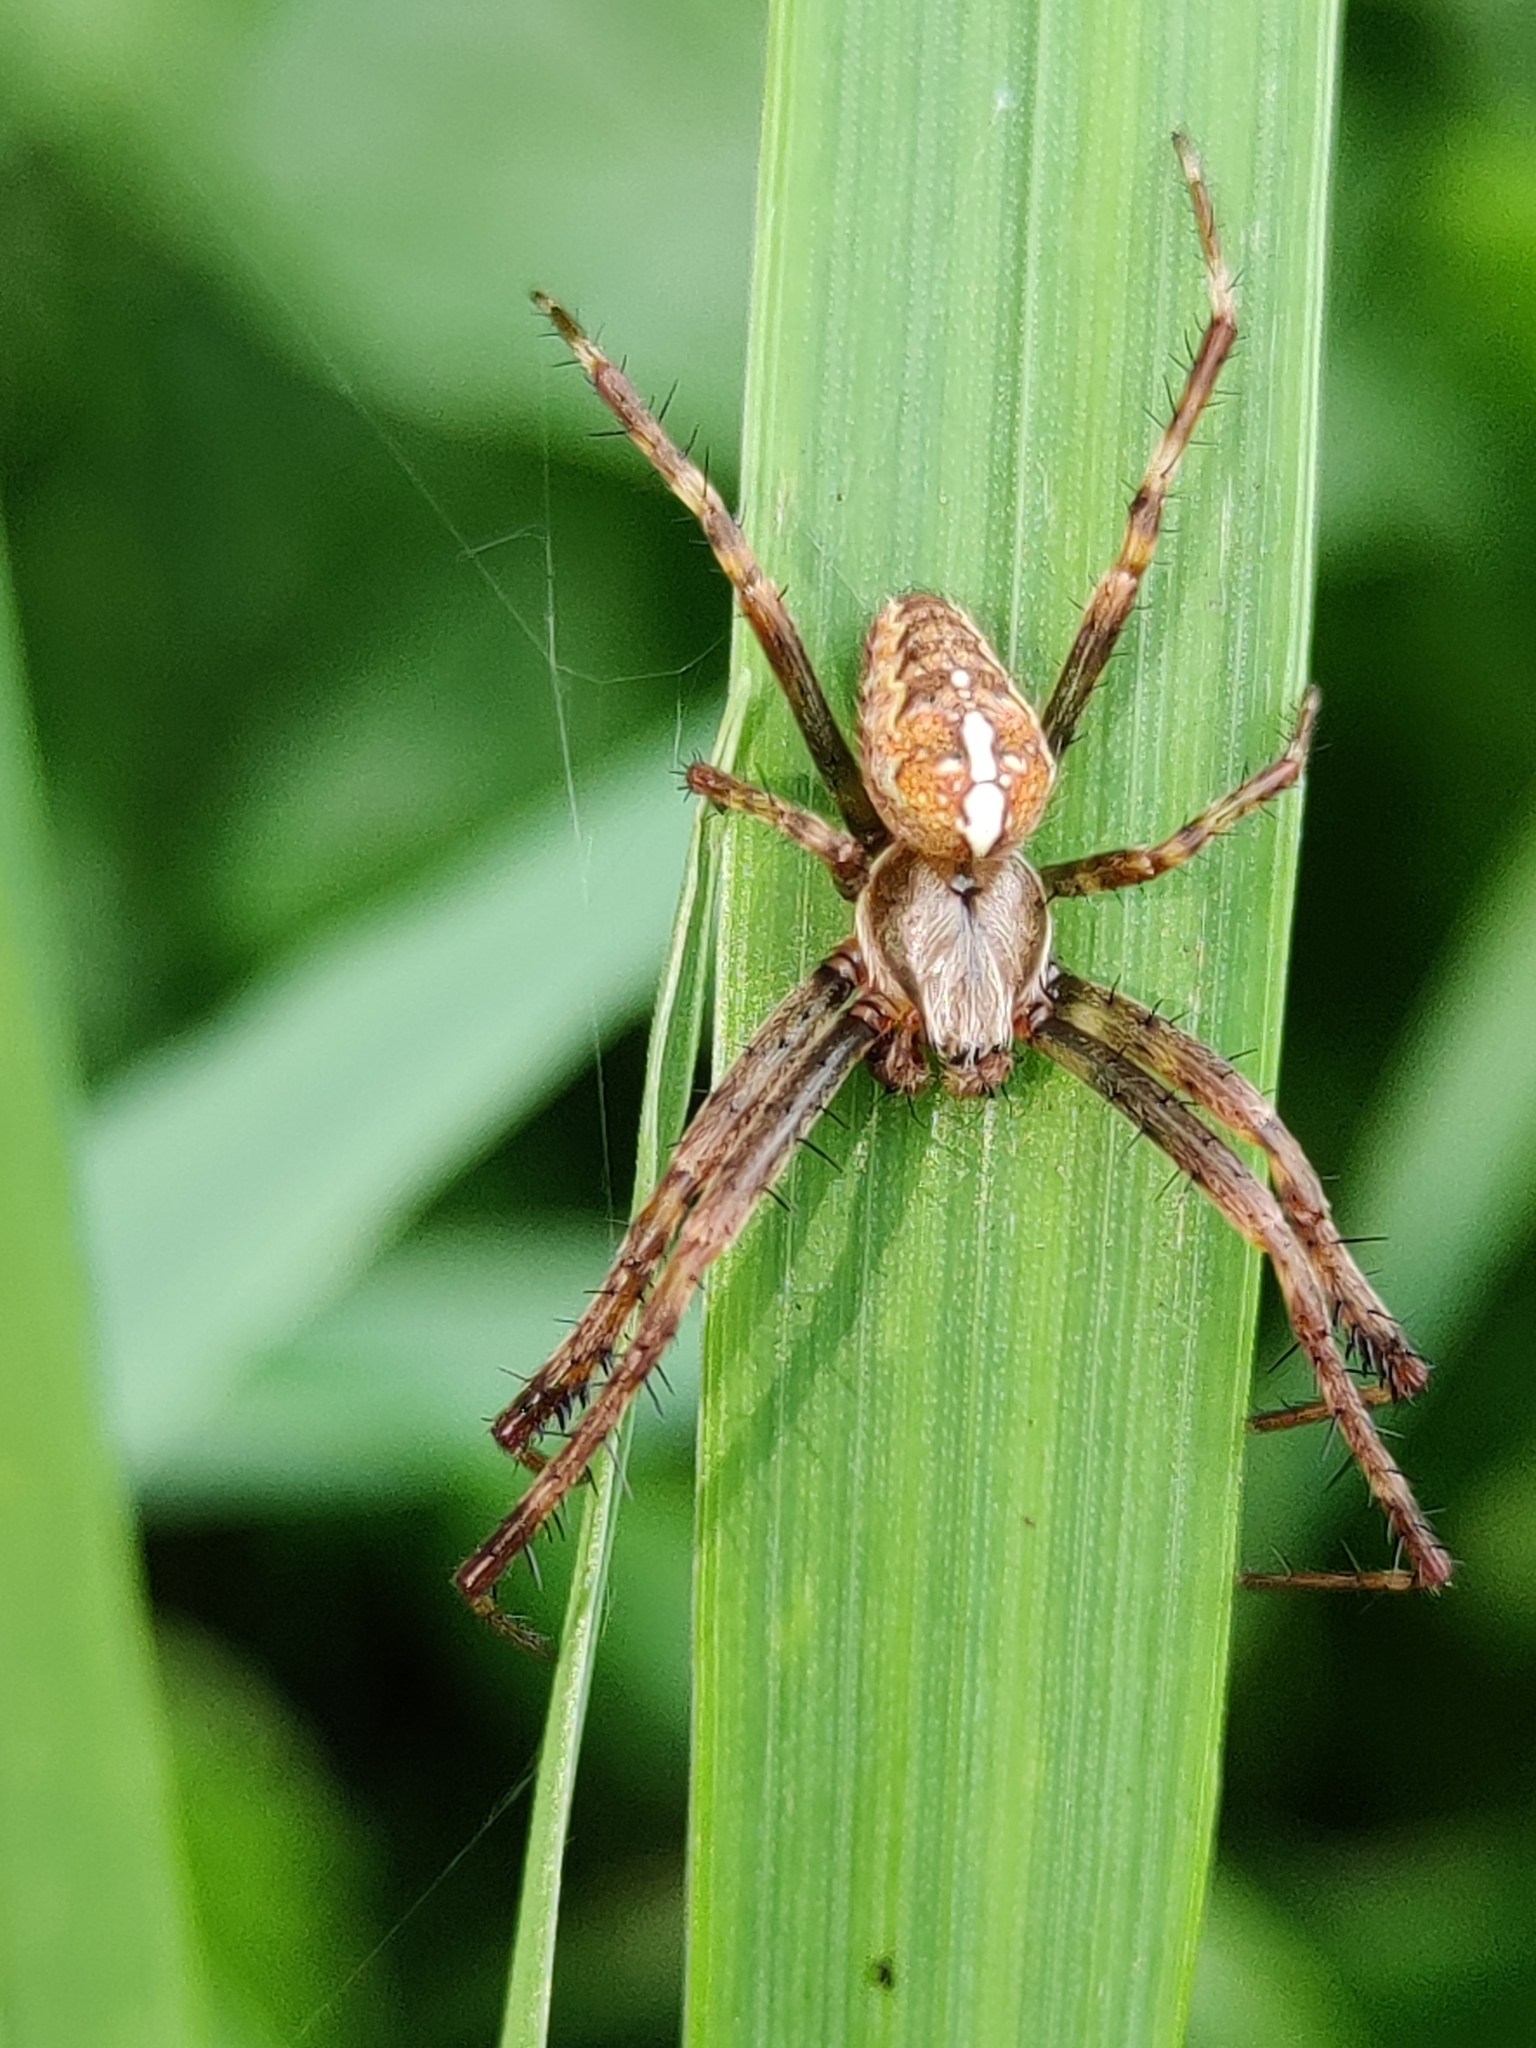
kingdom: Animalia
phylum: Arthropoda
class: Arachnida
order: Araneae
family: Araneidae
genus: Araneus
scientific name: Araneus diadematus
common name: Cross orbweaver
